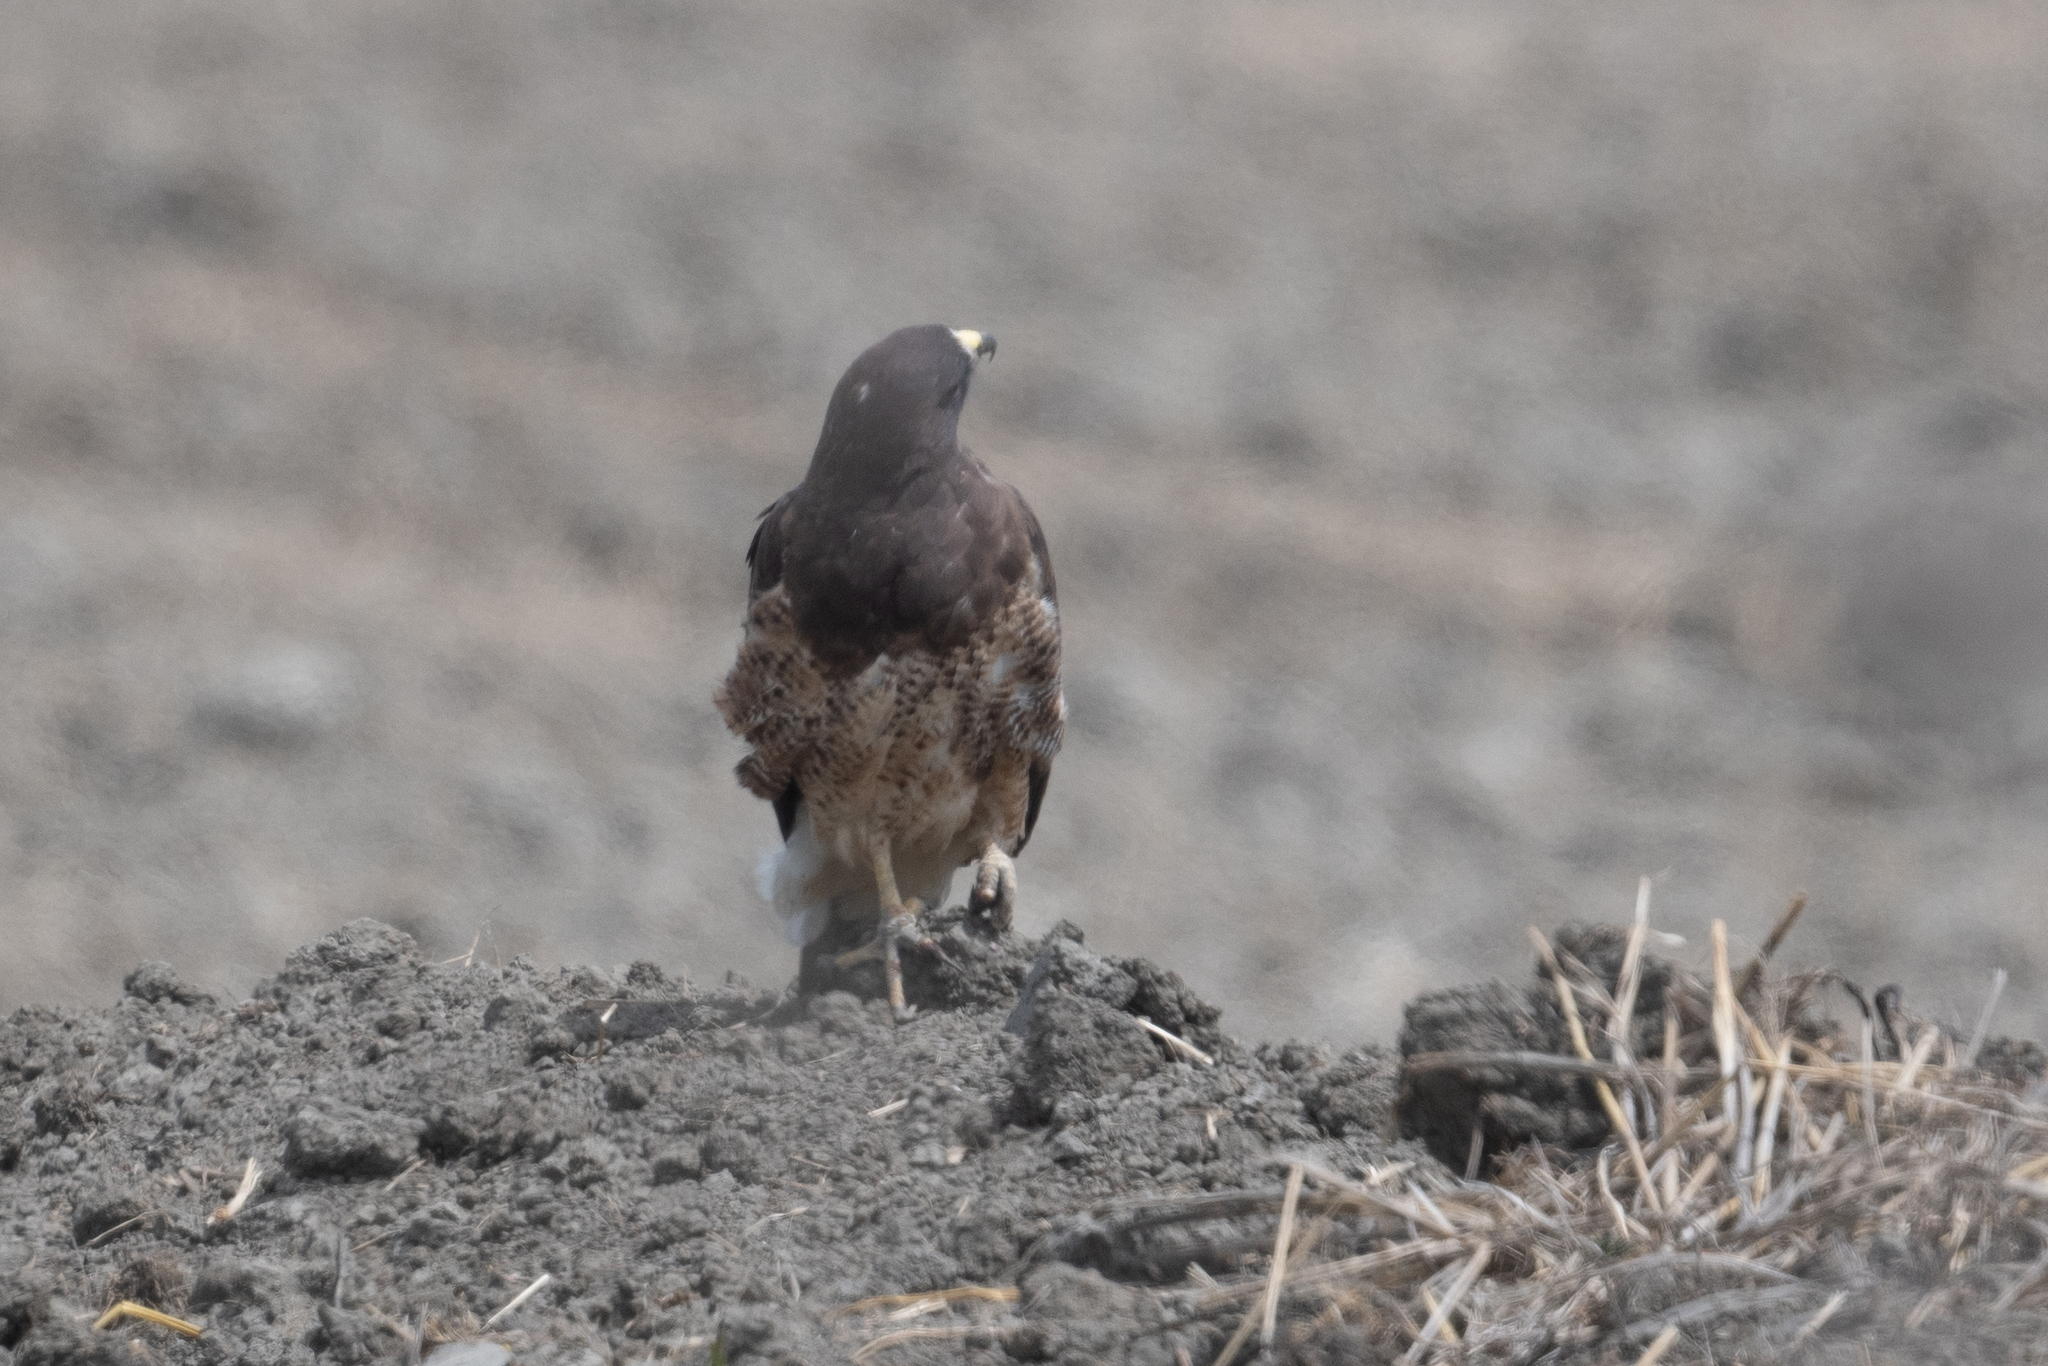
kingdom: Animalia
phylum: Chordata
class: Aves
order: Accipitriformes
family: Accipitridae
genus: Buteo
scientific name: Buteo swainsoni
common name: Swainson's hawk
